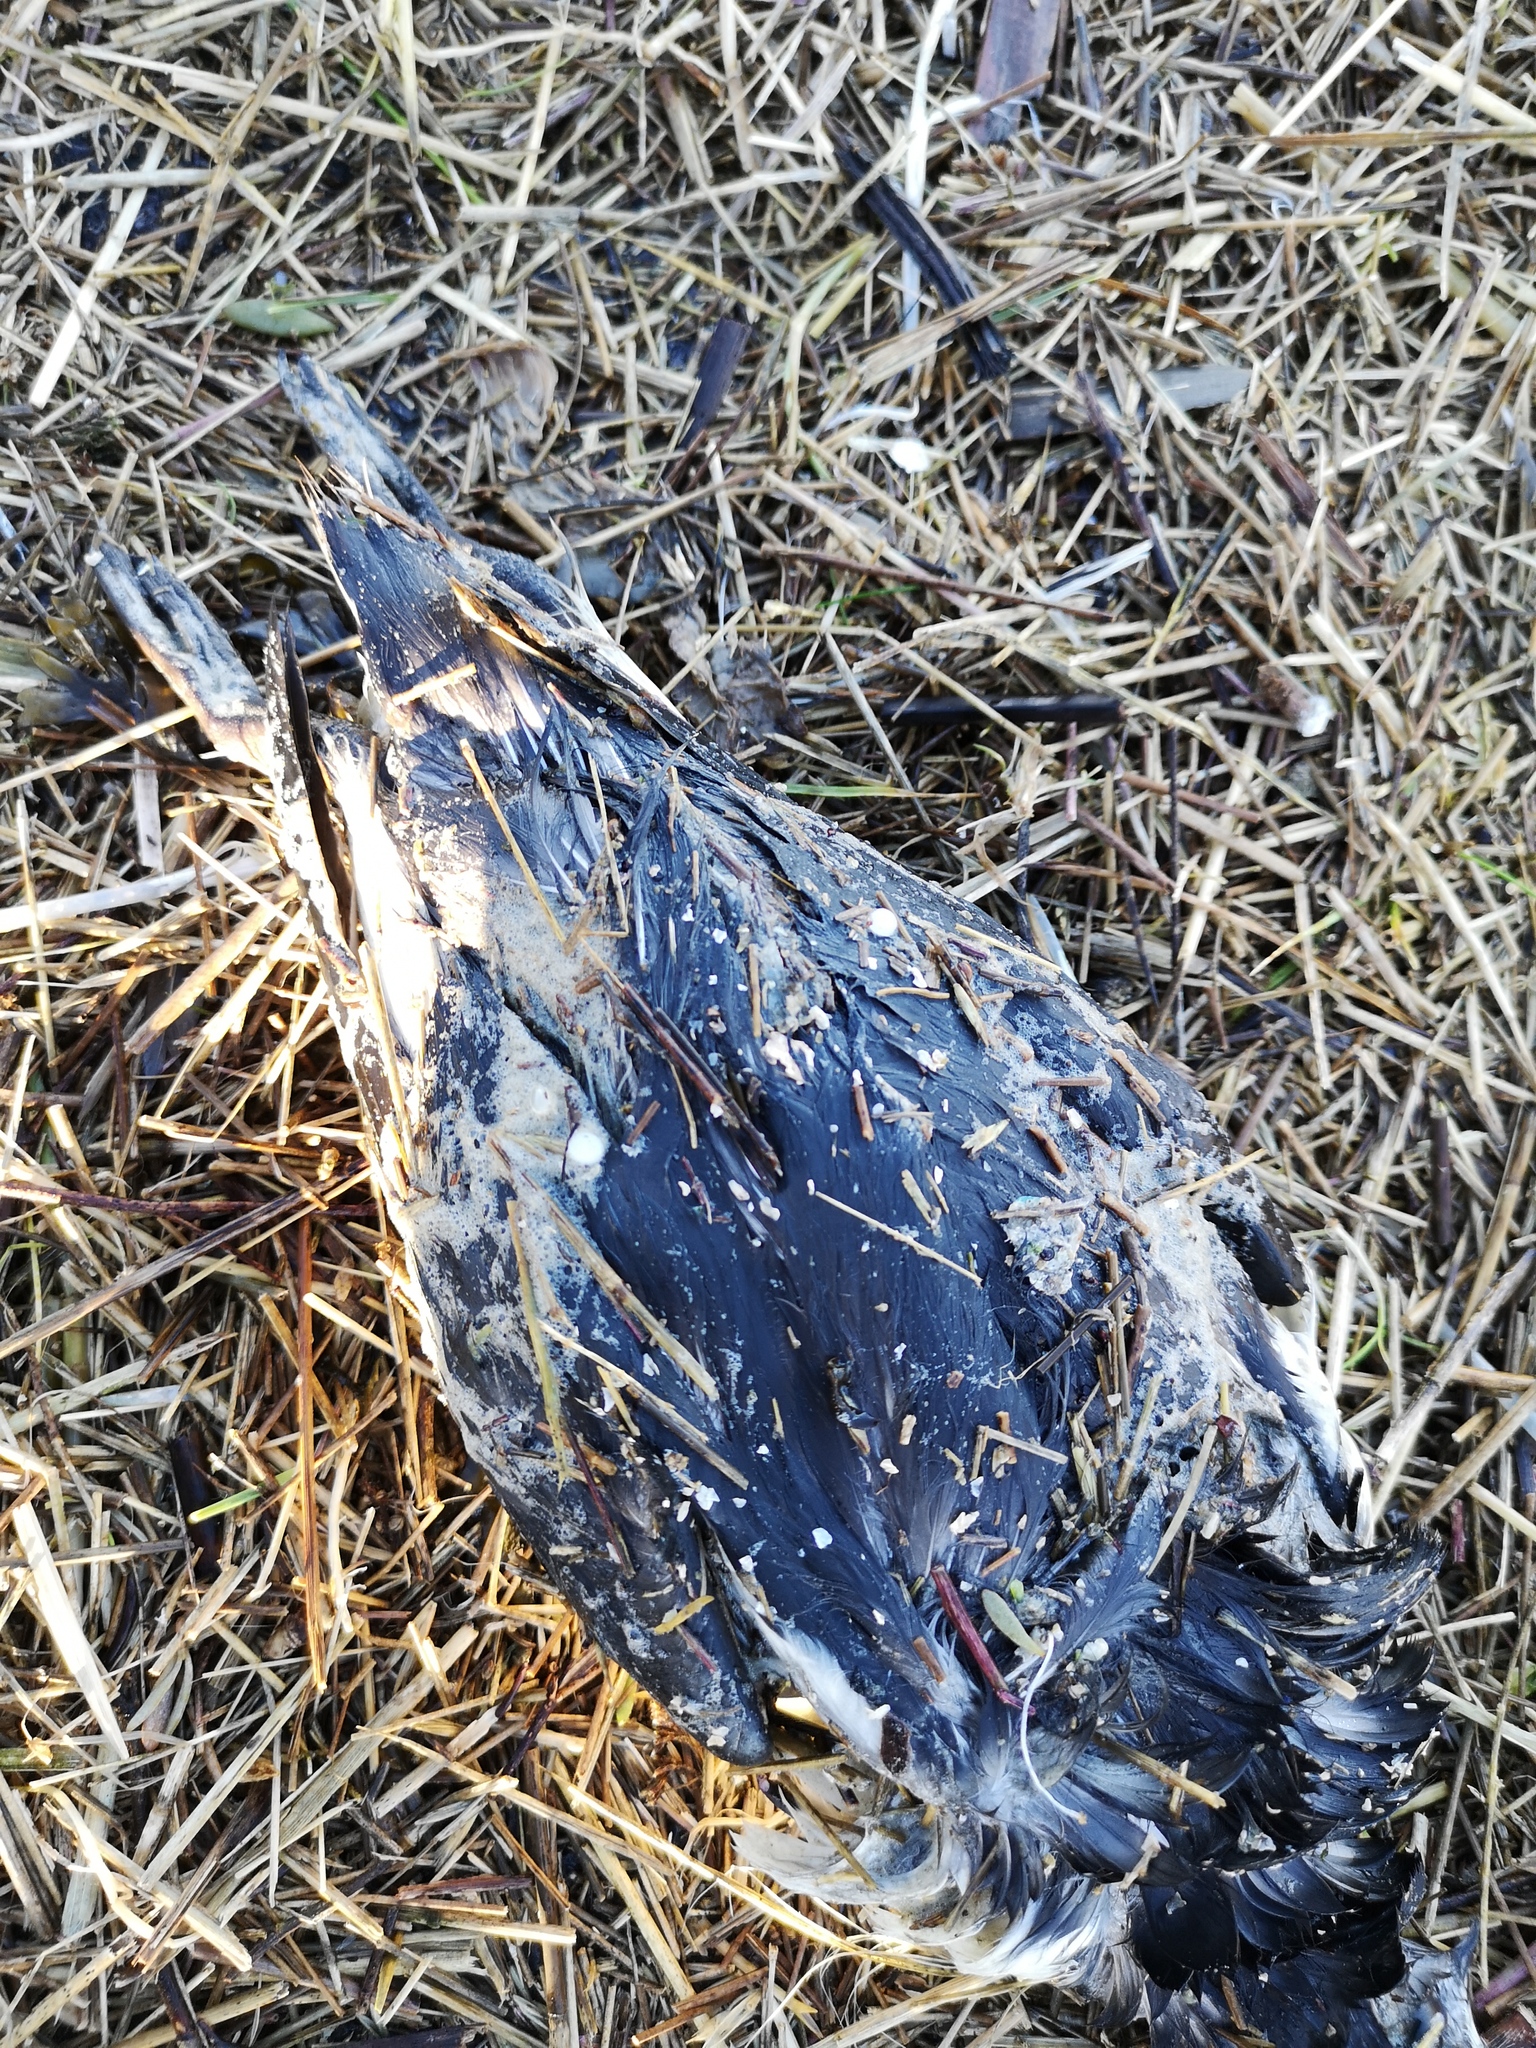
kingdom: Animalia
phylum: Chordata
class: Aves
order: Charadriiformes
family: Alcidae
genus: Uria
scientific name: Uria aalge
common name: Common murre
